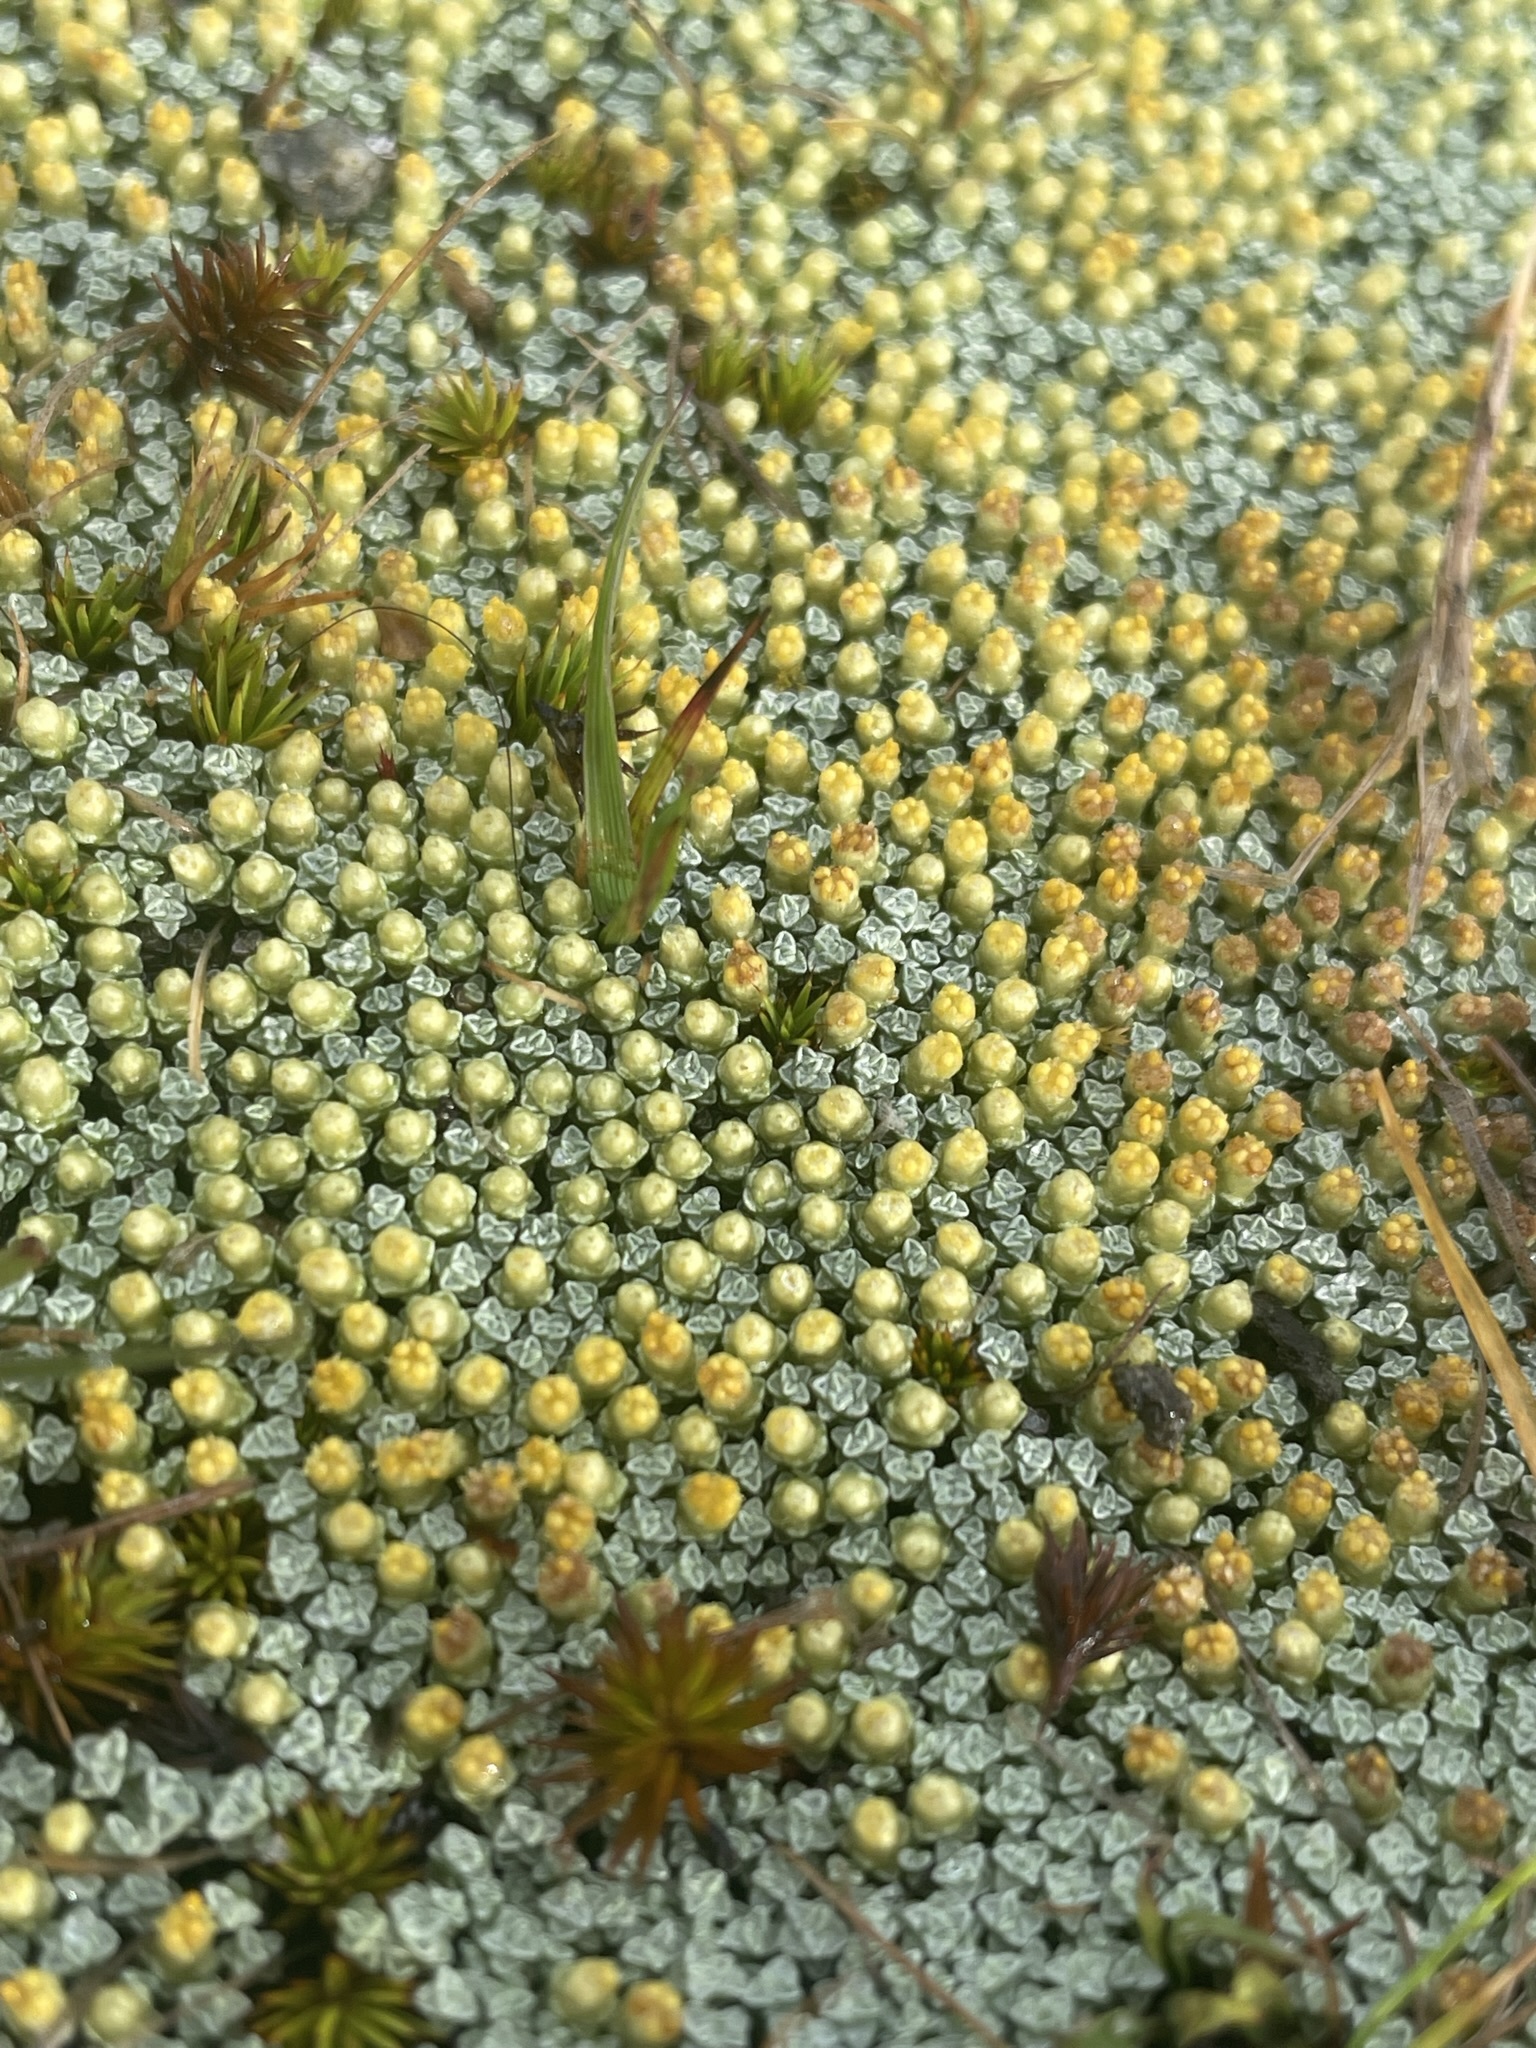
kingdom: Plantae
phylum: Tracheophyta
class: Magnoliopsida
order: Asterales
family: Asteraceae
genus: Raoulia
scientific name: Raoulia australis
